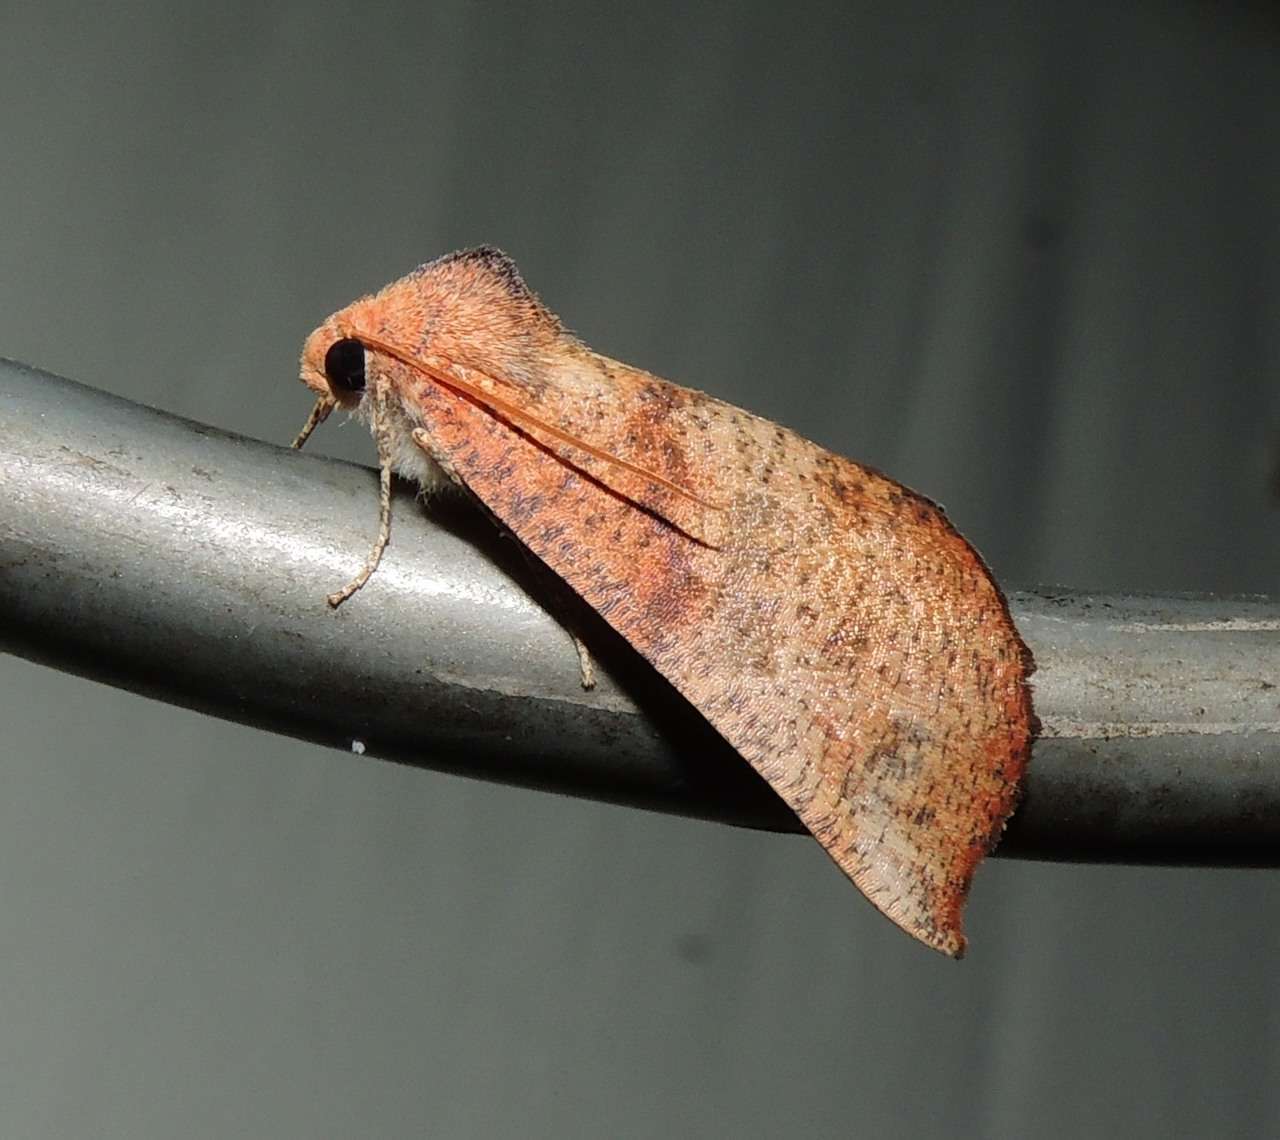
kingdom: Animalia
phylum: Arthropoda
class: Insecta
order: Lepidoptera
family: Geometridae
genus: Mnesampela
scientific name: Mnesampela privata
